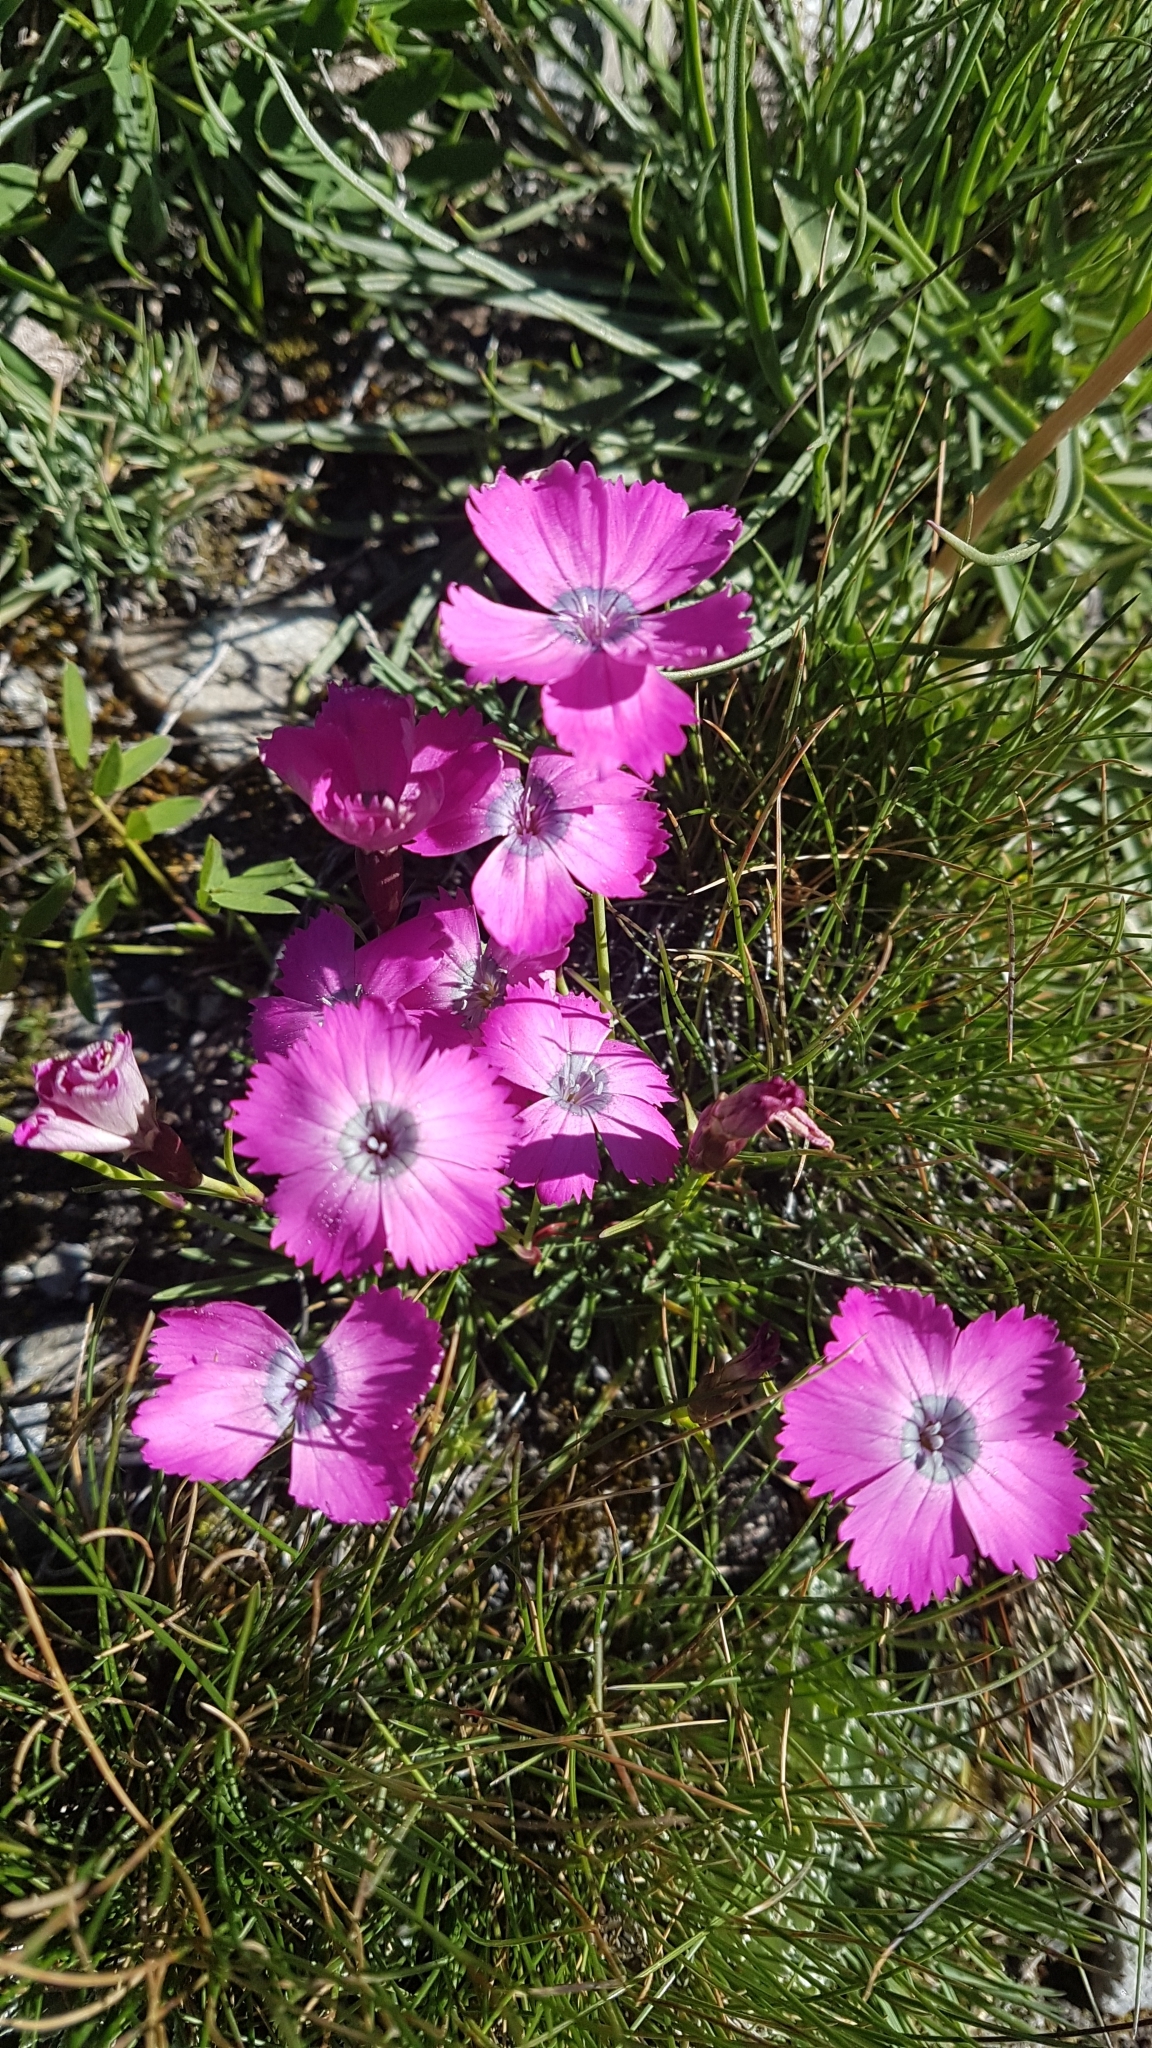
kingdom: Plantae
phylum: Tracheophyta
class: Magnoliopsida
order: Caryophyllales
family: Caryophyllaceae
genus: Dianthus
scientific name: Dianthus pavonius
